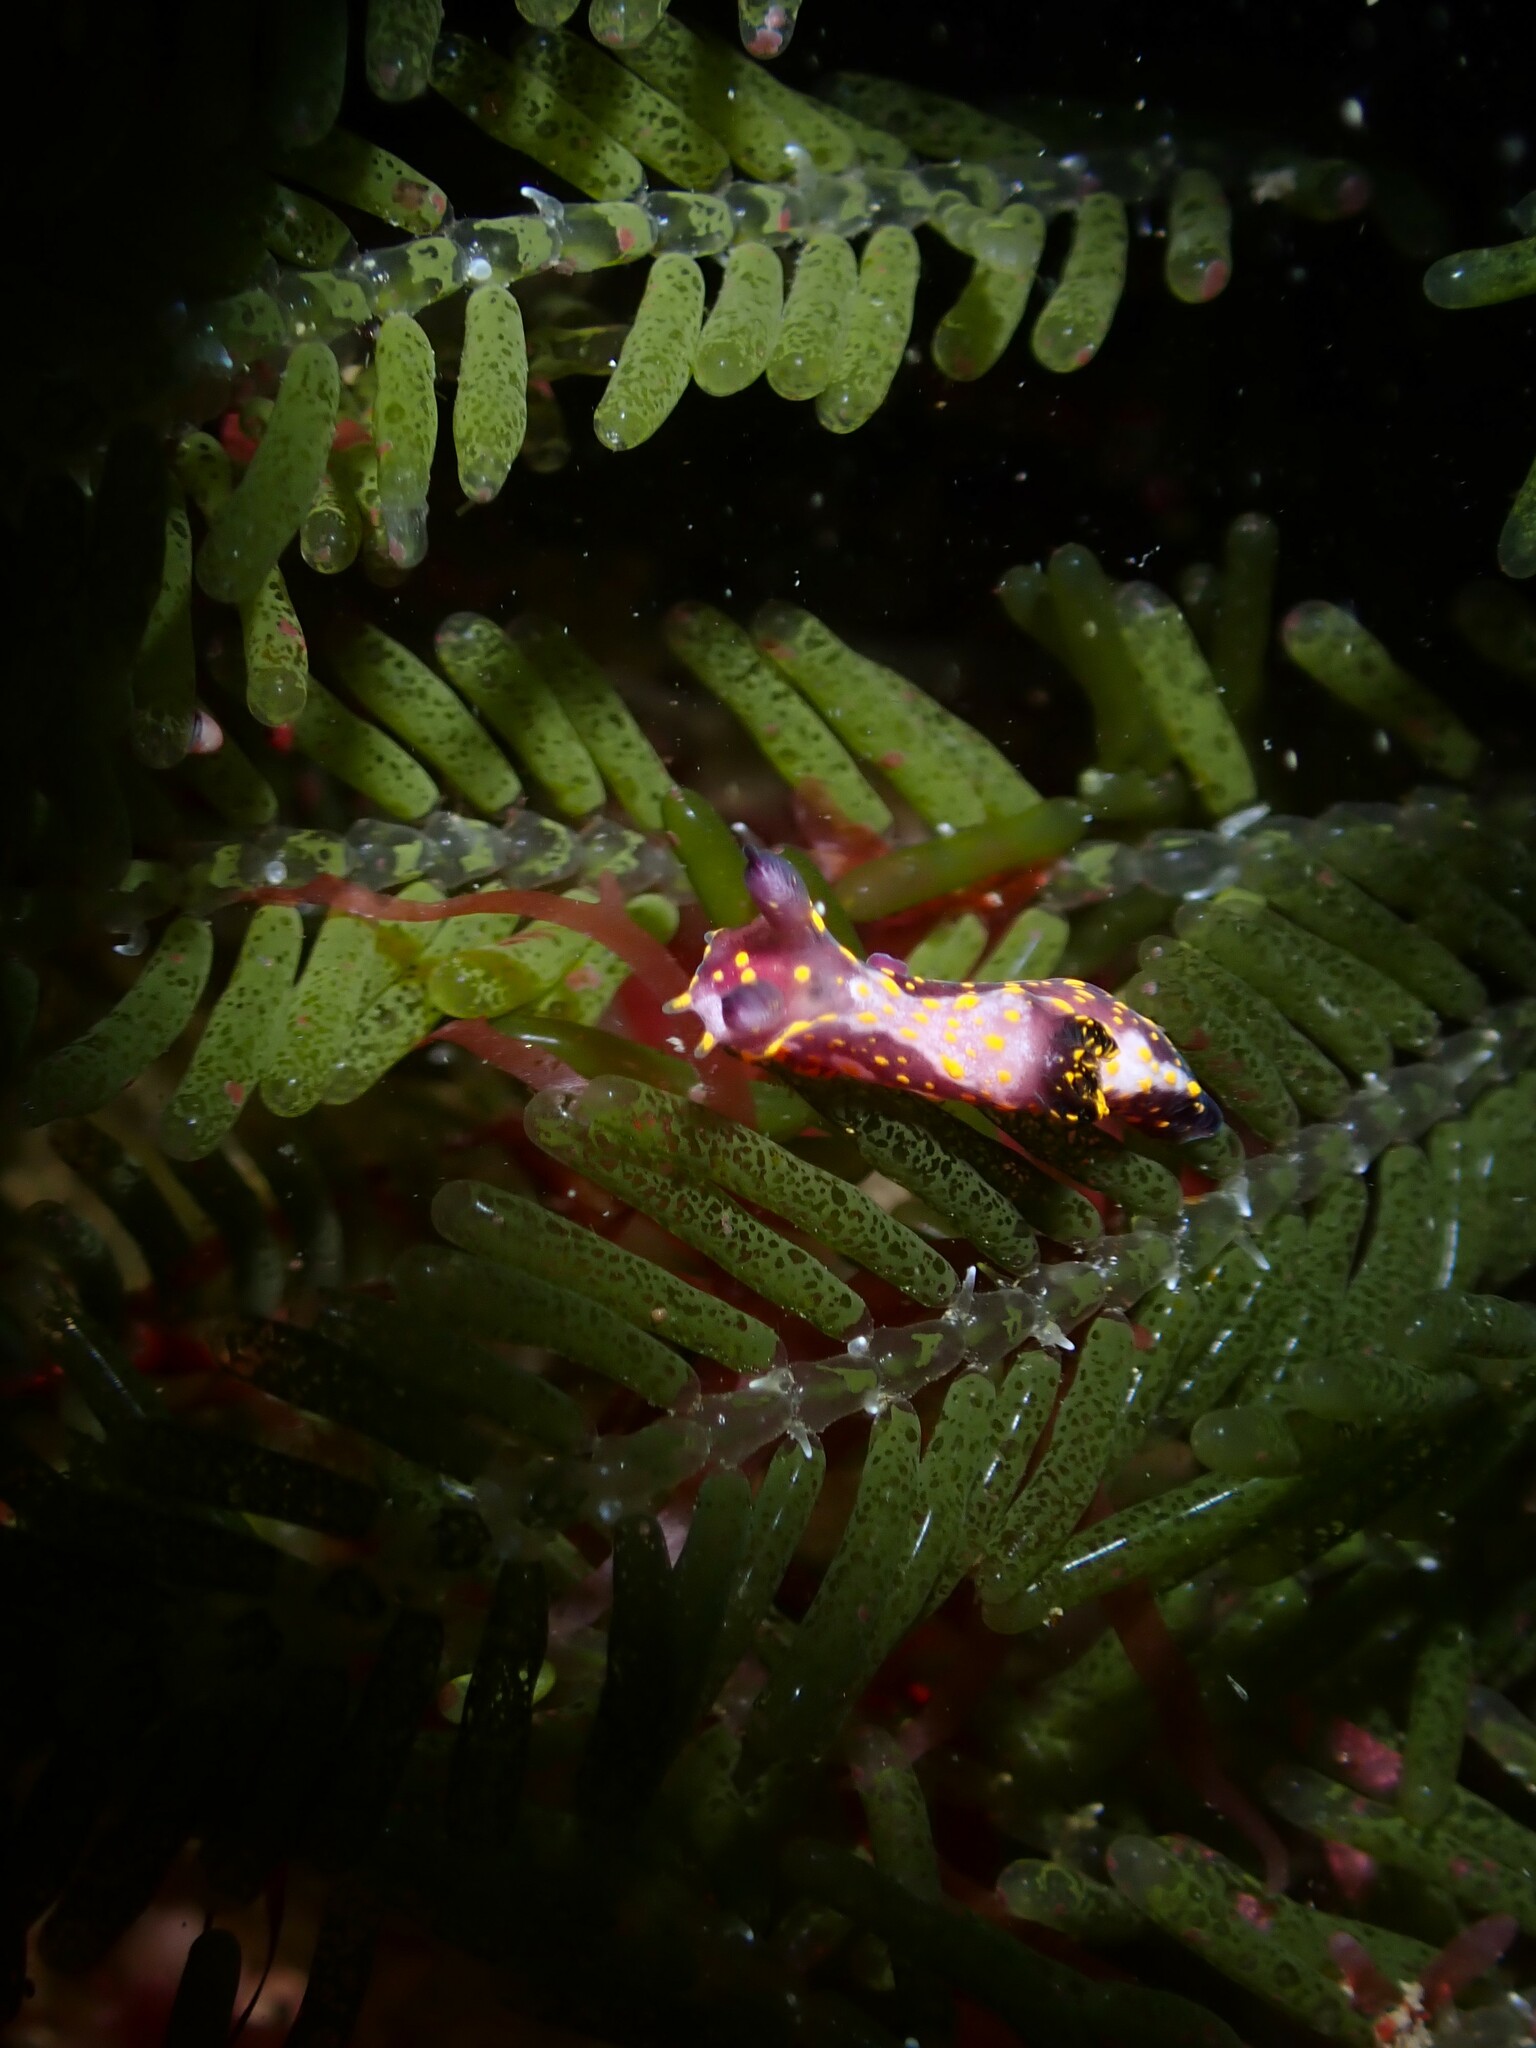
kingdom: Plantae
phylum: Chlorophyta
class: Ulvophyceae
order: Bryopsidales
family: Caulerpaceae
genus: Caulerpa
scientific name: Caulerpa articulata
